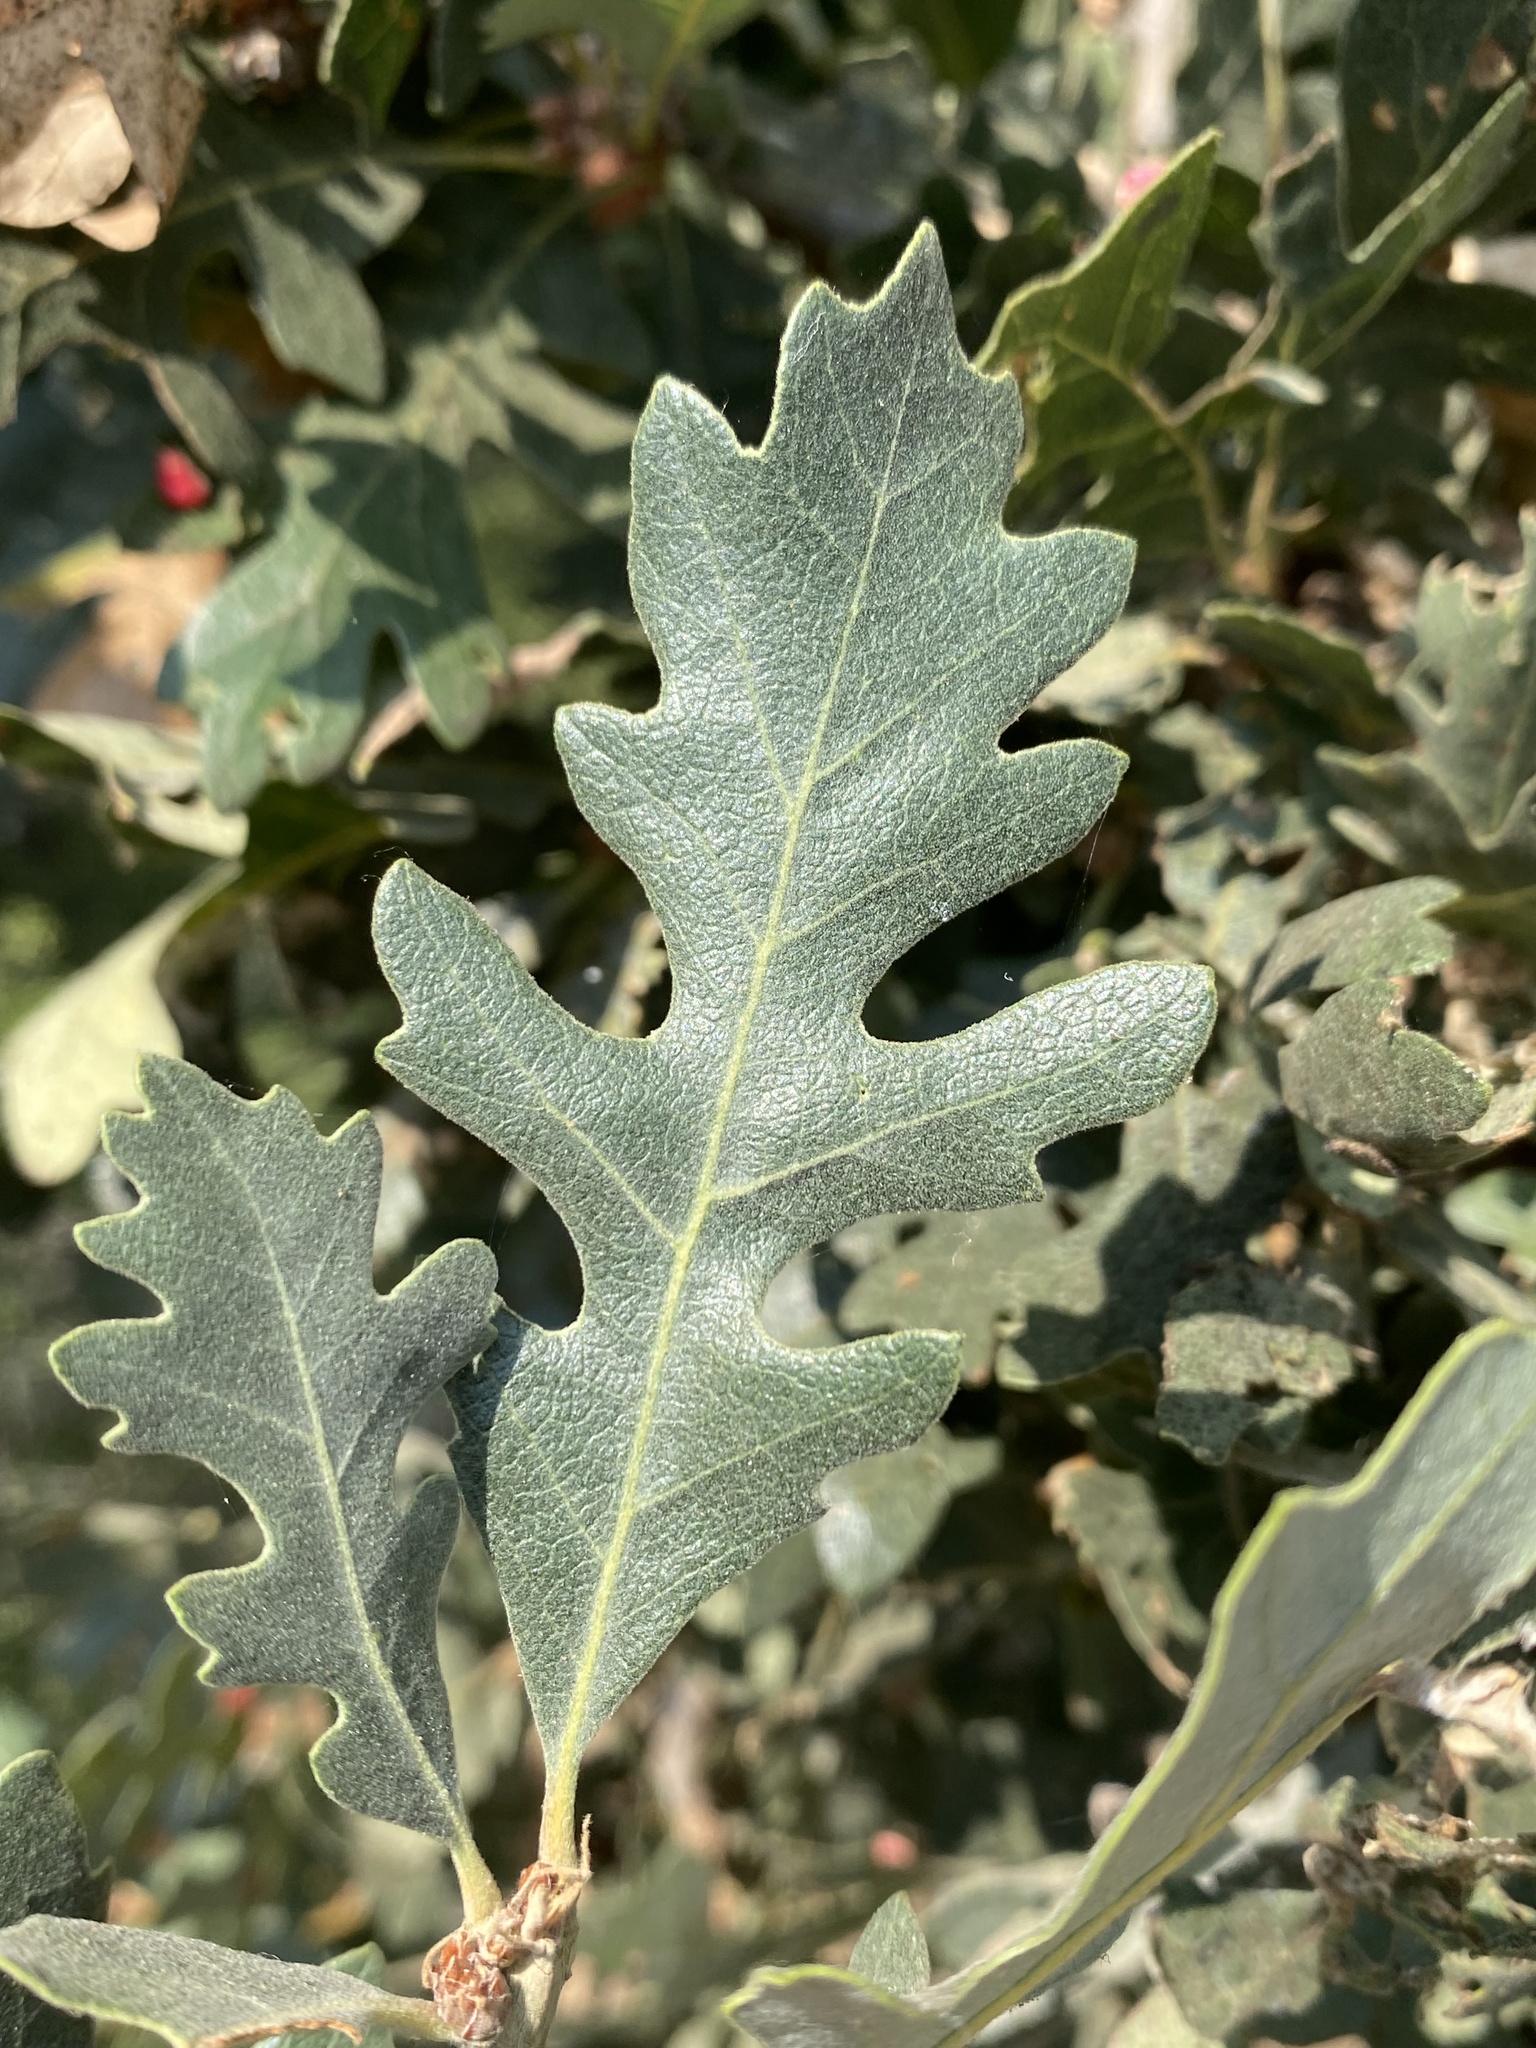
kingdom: Plantae
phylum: Tracheophyta
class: Magnoliopsida
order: Fagales
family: Fagaceae
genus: Quercus
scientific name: Quercus lobata
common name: Valley oak
